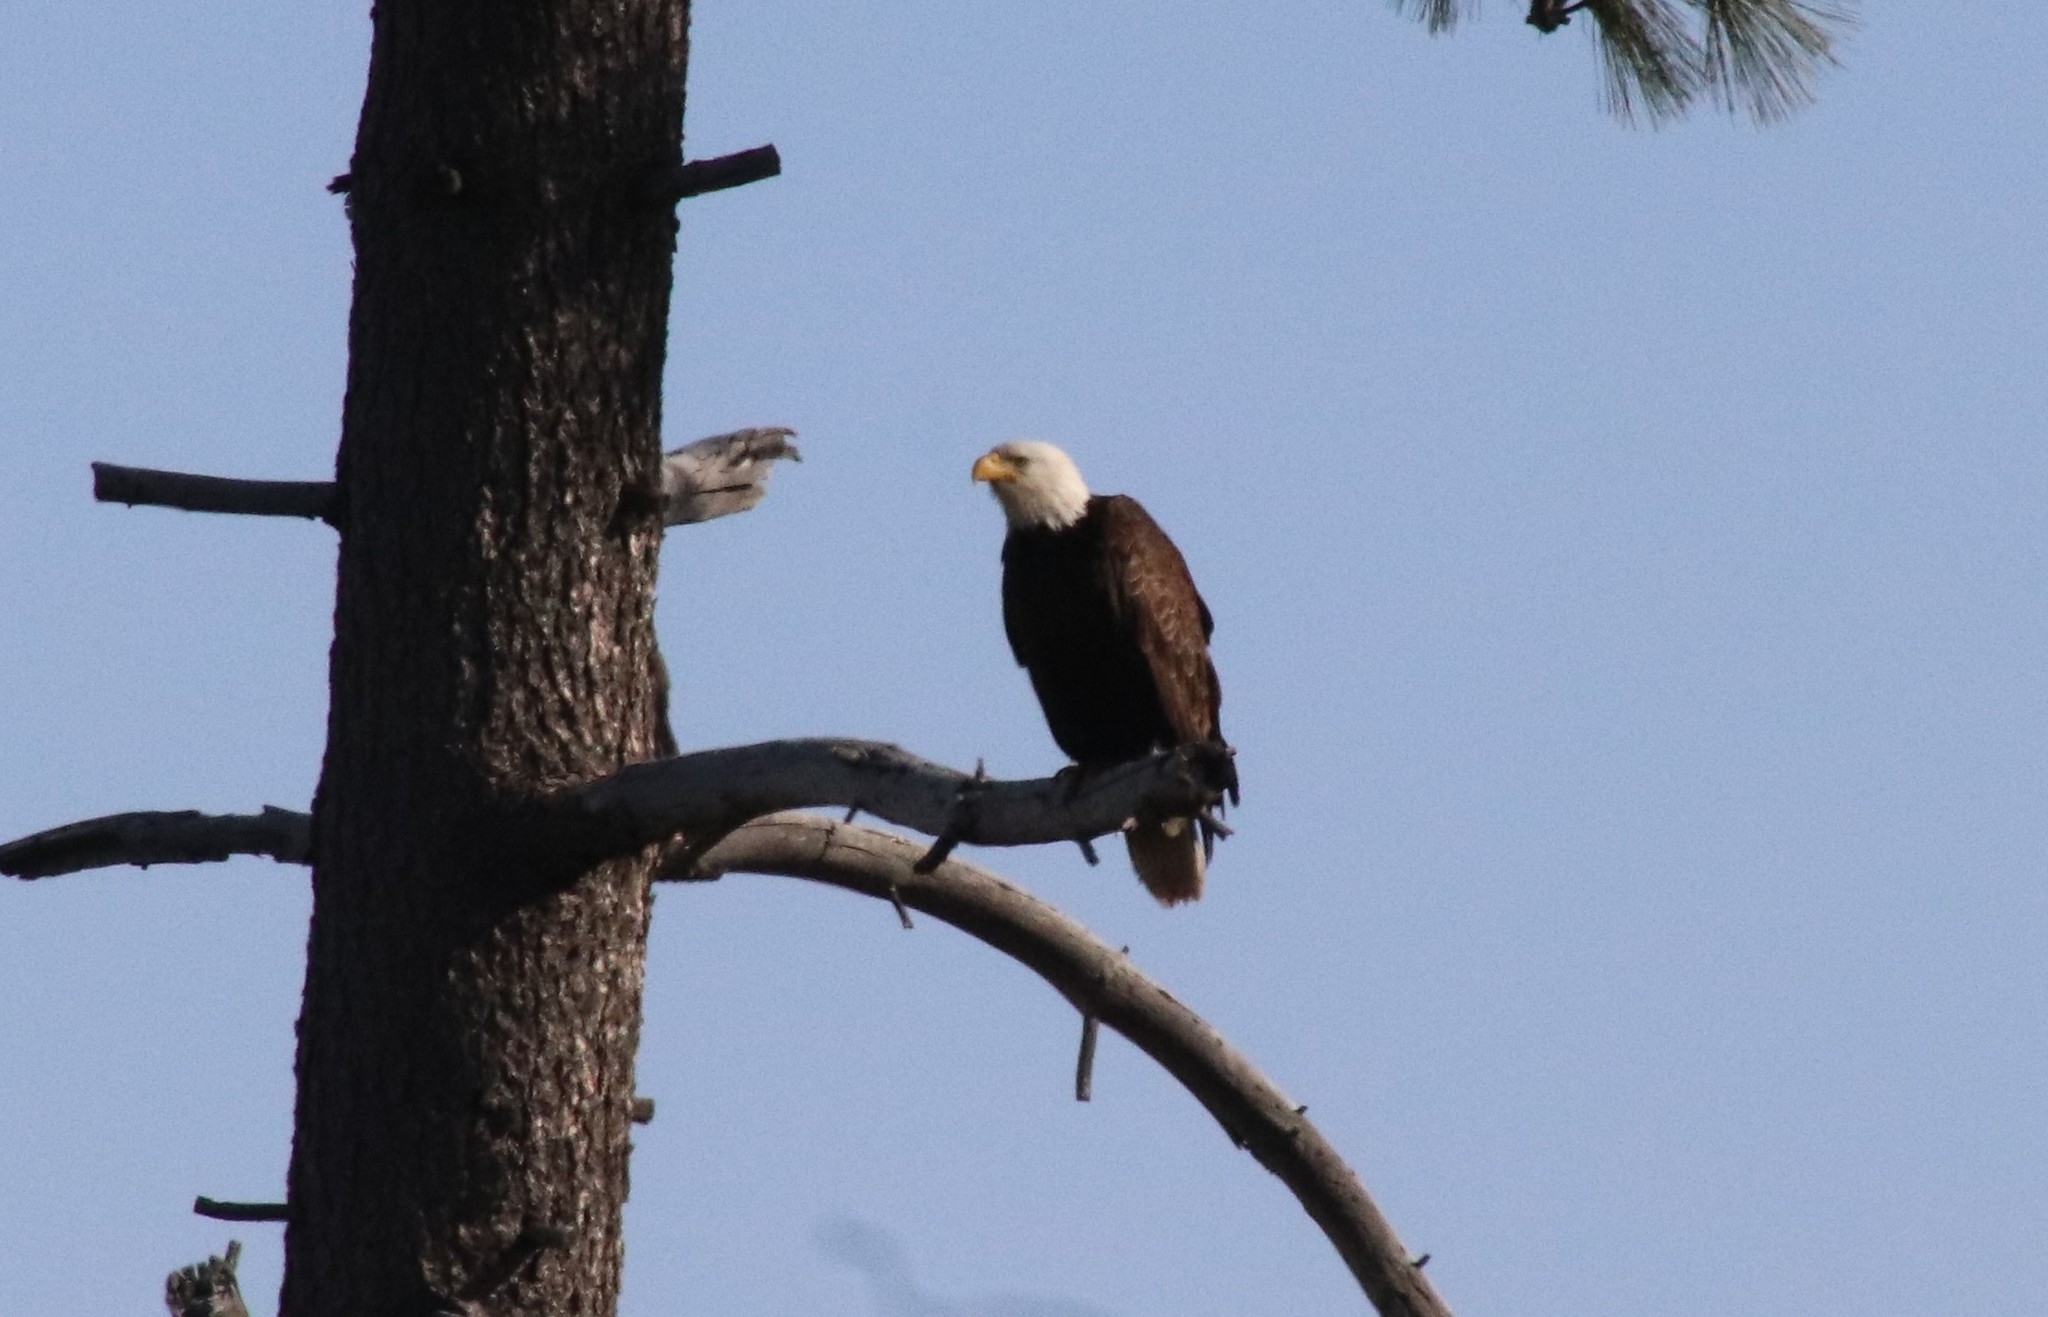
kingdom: Animalia
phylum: Chordata
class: Aves
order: Accipitriformes
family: Accipitridae
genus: Haliaeetus
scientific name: Haliaeetus leucocephalus
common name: Bald eagle
